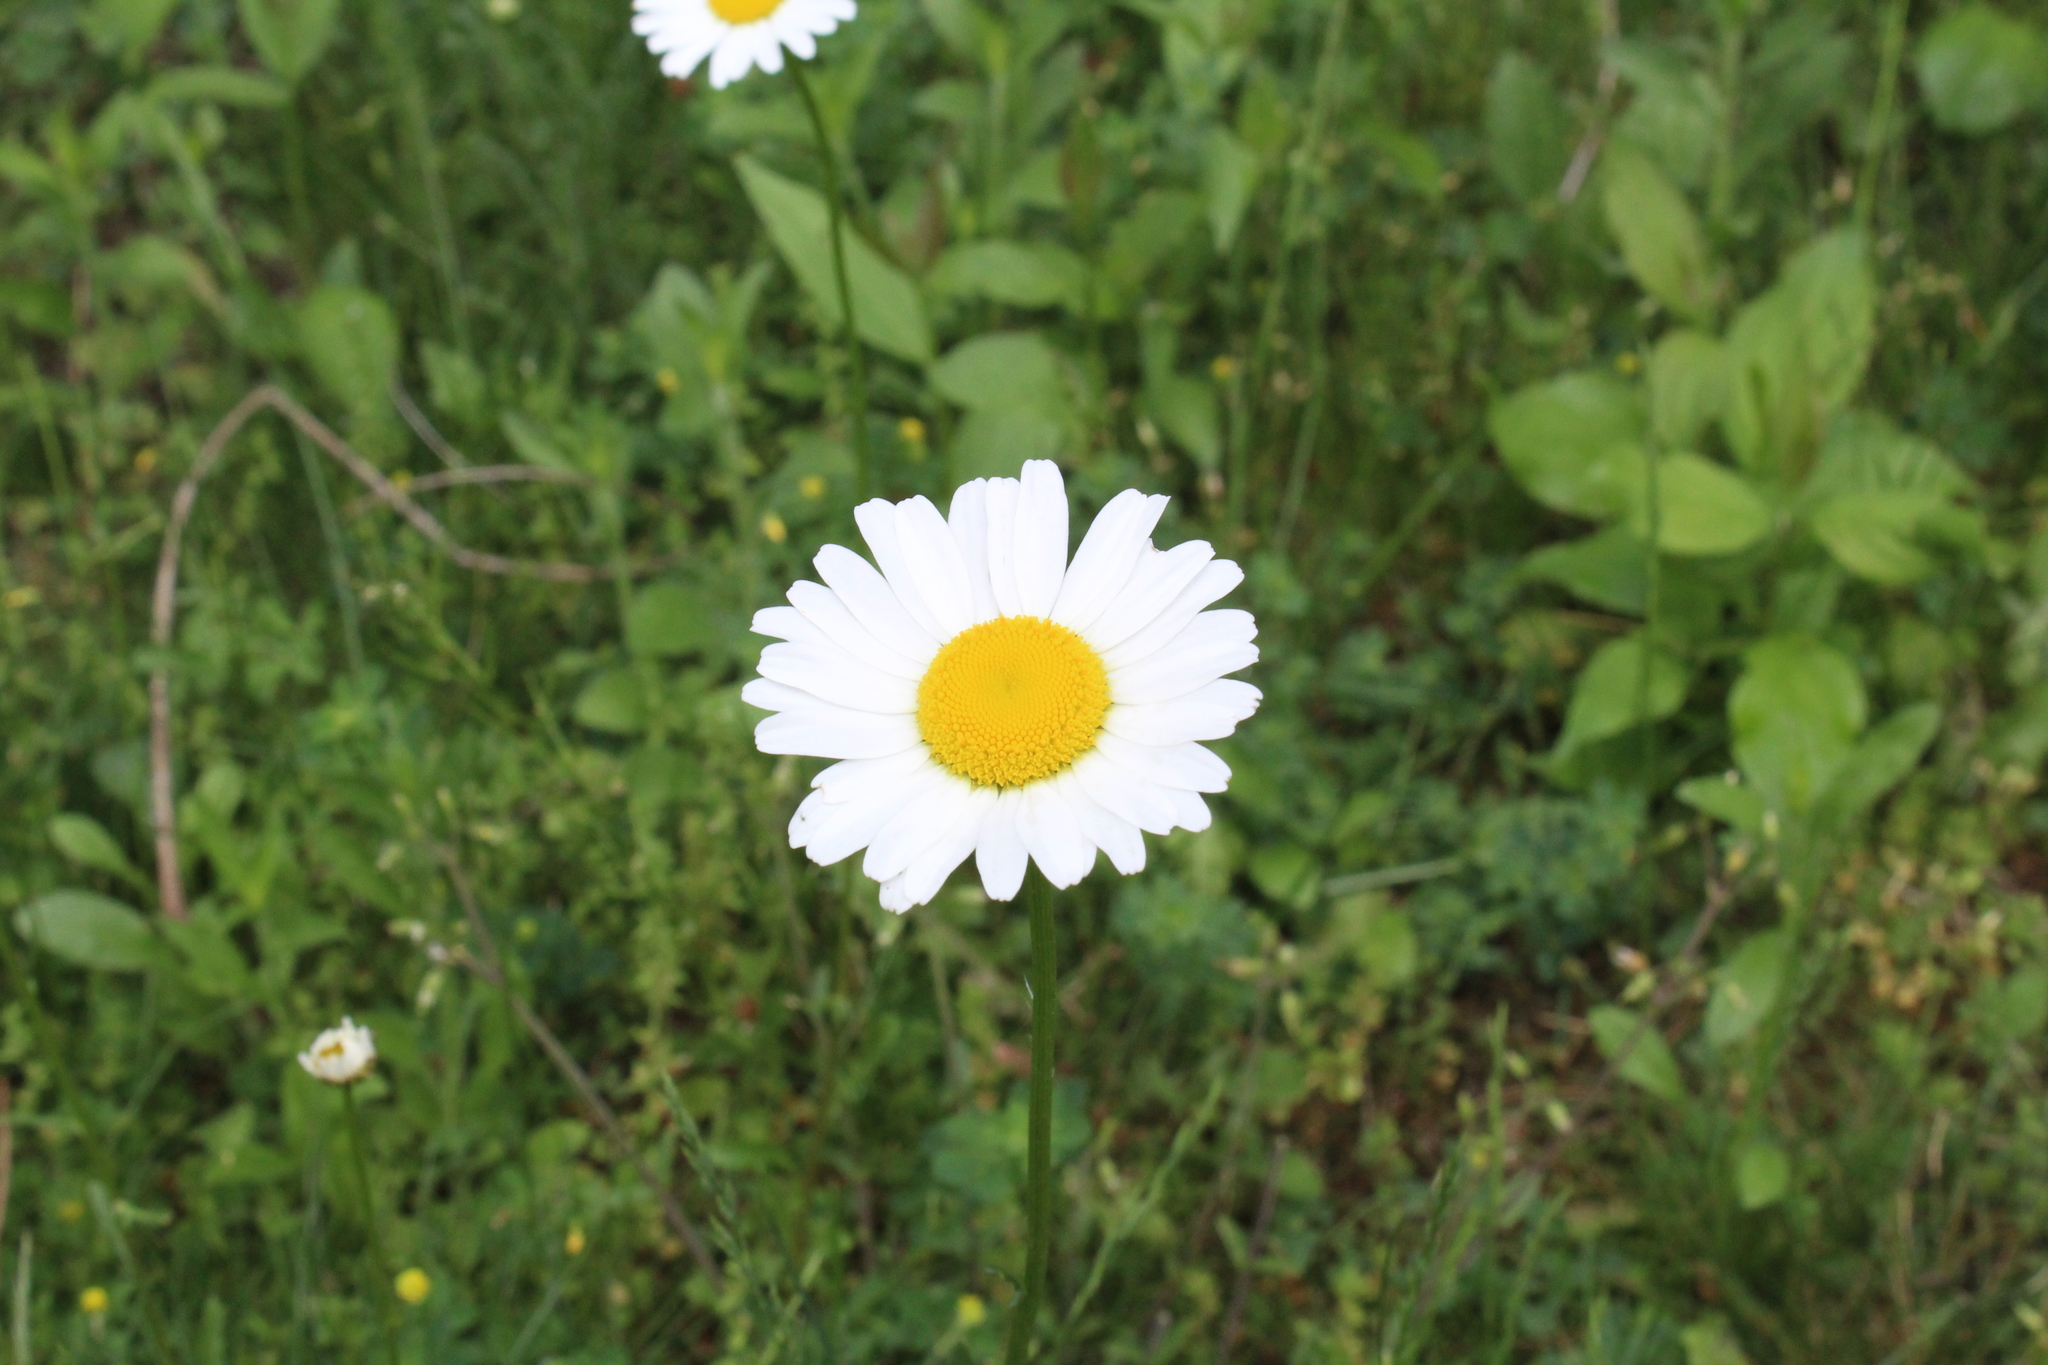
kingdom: Plantae
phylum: Tracheophyta
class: Magnoliopsida
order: Asterales
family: Asteraceae
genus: Leucanthemum
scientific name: Leucanthemum vulgare
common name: Oxeye daisy
